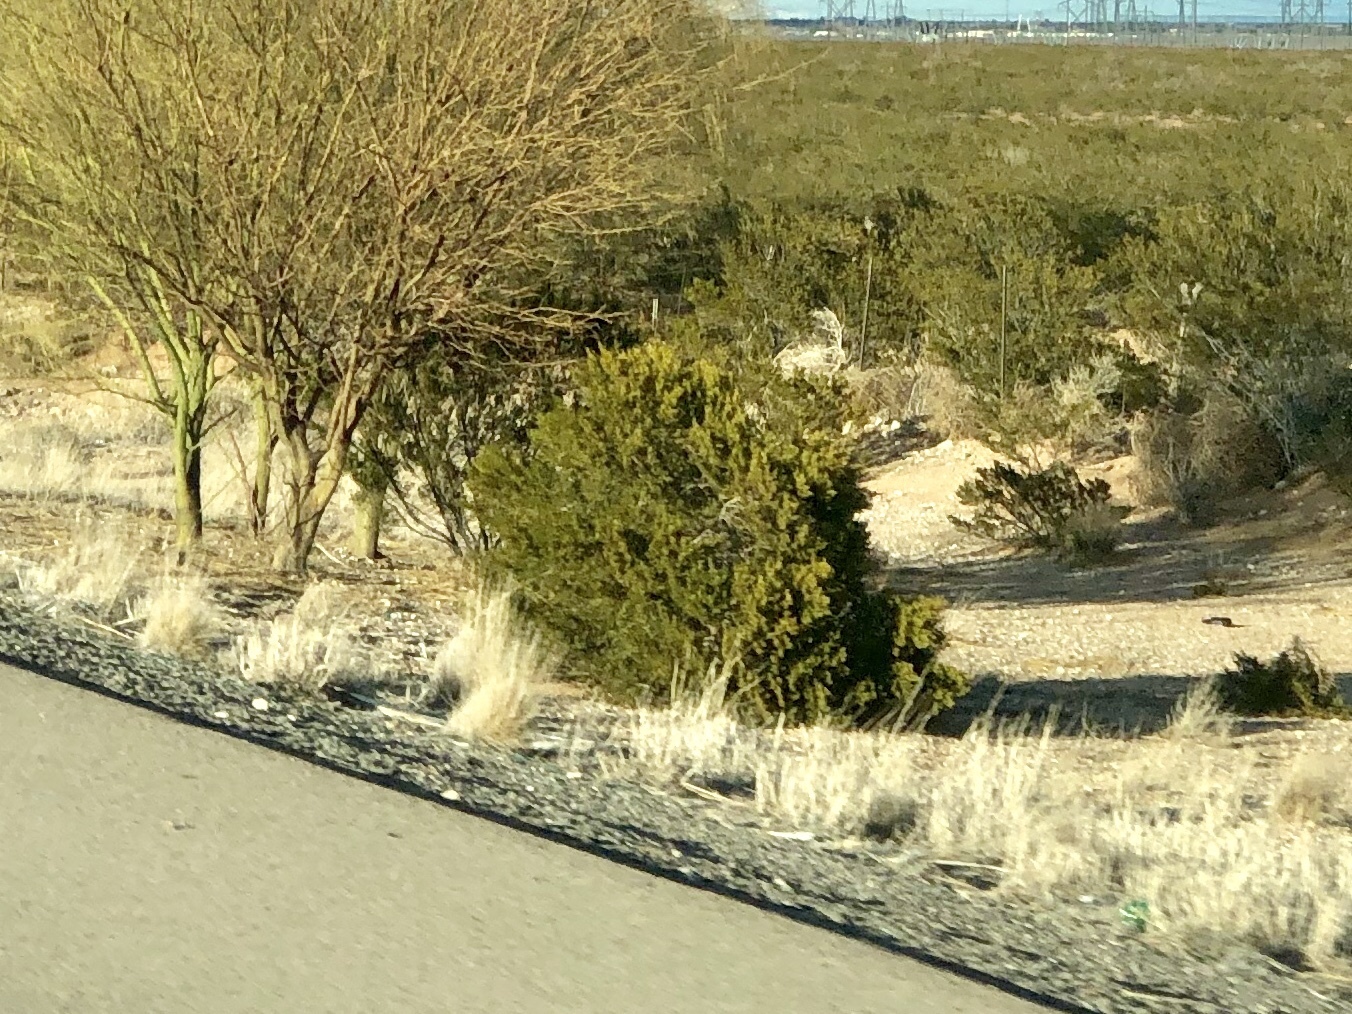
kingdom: Plantae
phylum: Tracheophyta
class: Magnoliopsida
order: Zygophyllales
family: Zygophyllaceae
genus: Larrea
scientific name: Larrea tridentata
